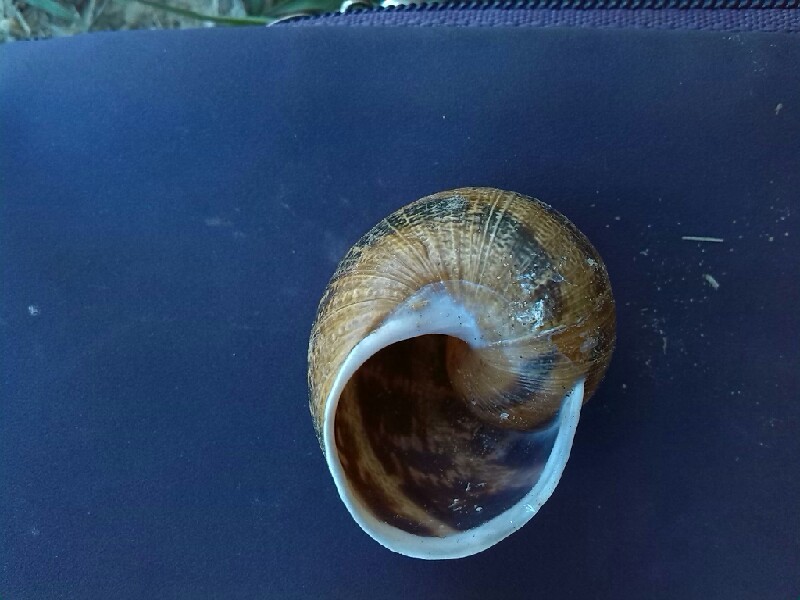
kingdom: Animalia
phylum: Mollusca
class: Gastropoda
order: Stylommatophora
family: Helicidae
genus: Cornu
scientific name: Cornu aspersum
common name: Brown garden snail
